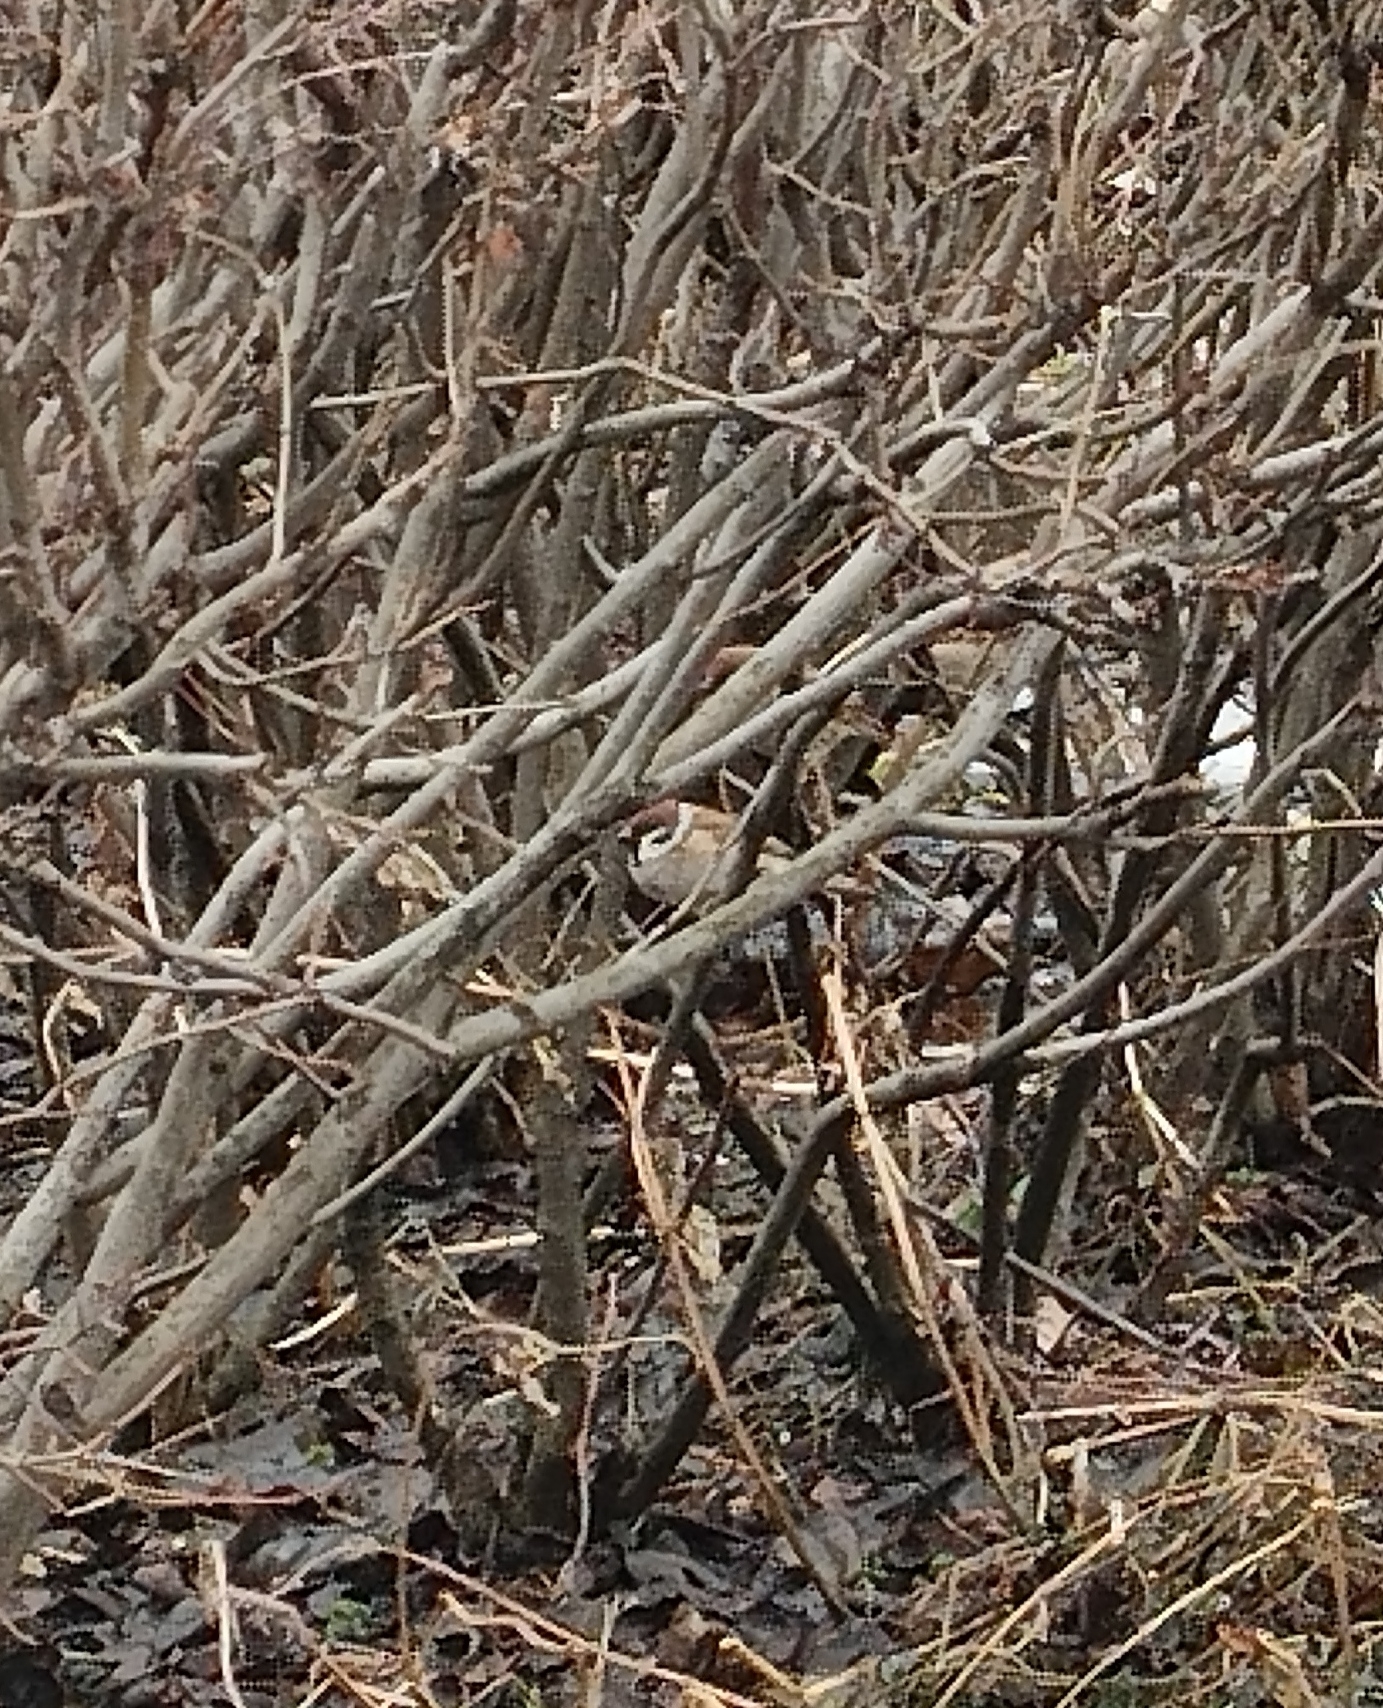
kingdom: Animalia
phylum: Chordata
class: Aves
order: Passeriformes
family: Passeridae
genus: Passer
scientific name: Passer montanus
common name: Eurasian tree sparrow
